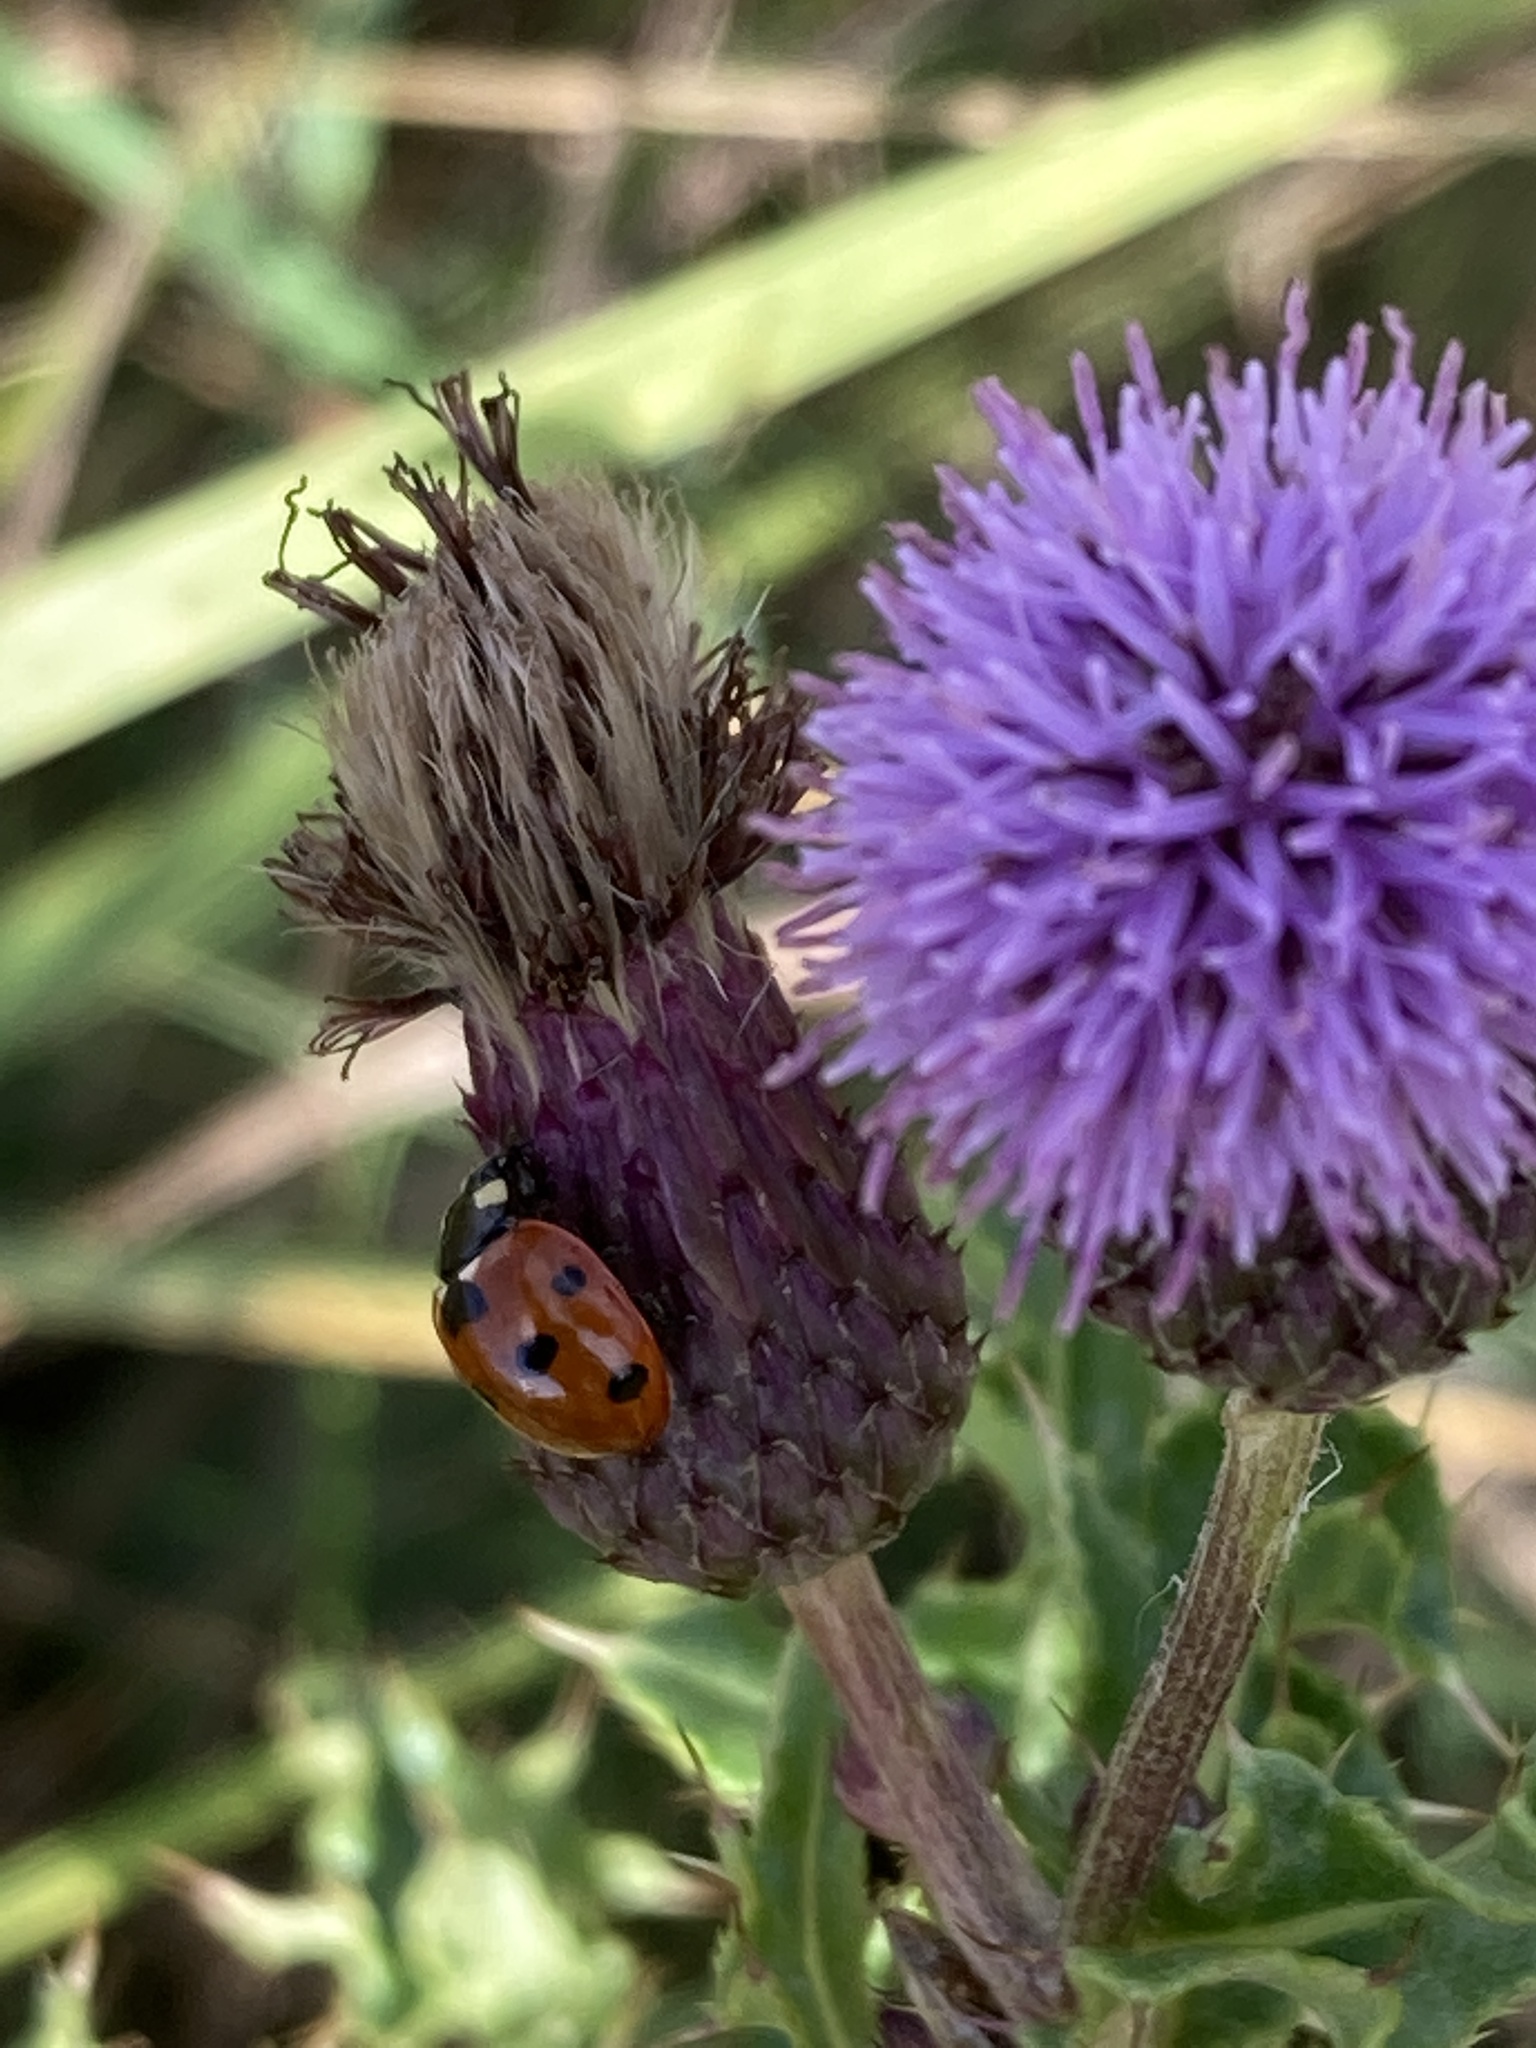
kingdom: Animalia
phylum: Arthropoda
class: Insecta
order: Coleoptera
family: Coccinellidae
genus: Coccinella
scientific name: Coccinella septempunctata
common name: Sevenspotted lady beetle
